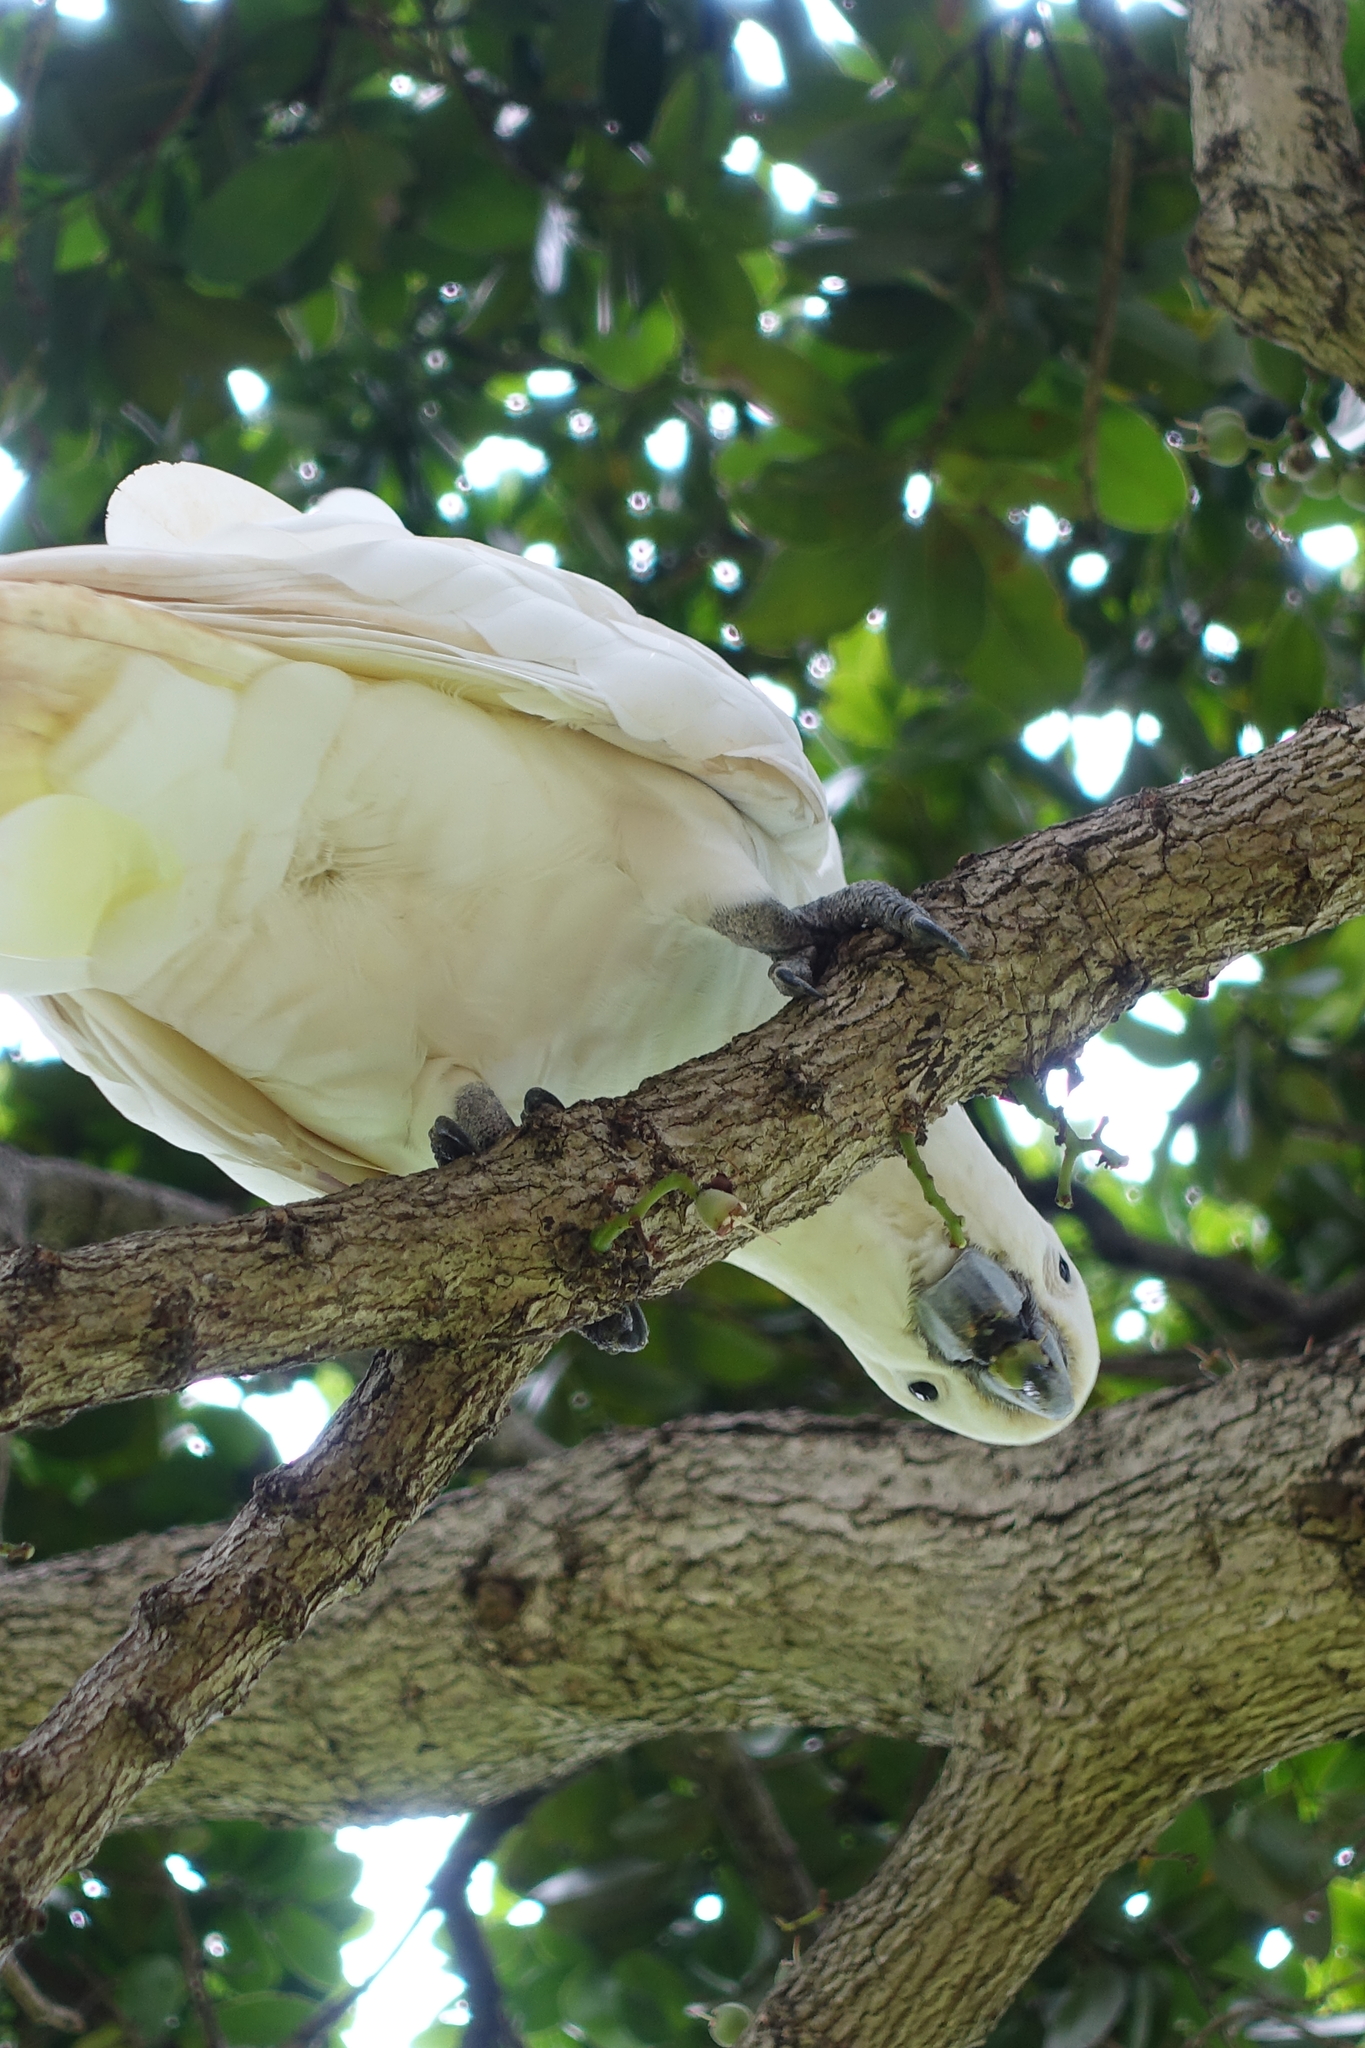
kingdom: Animalia
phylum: Chordata
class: Aves
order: Psittaciformes
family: Psittacidae
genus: Cacatua
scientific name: Cacatua galerita
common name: Sulphur-crested cockatoo
